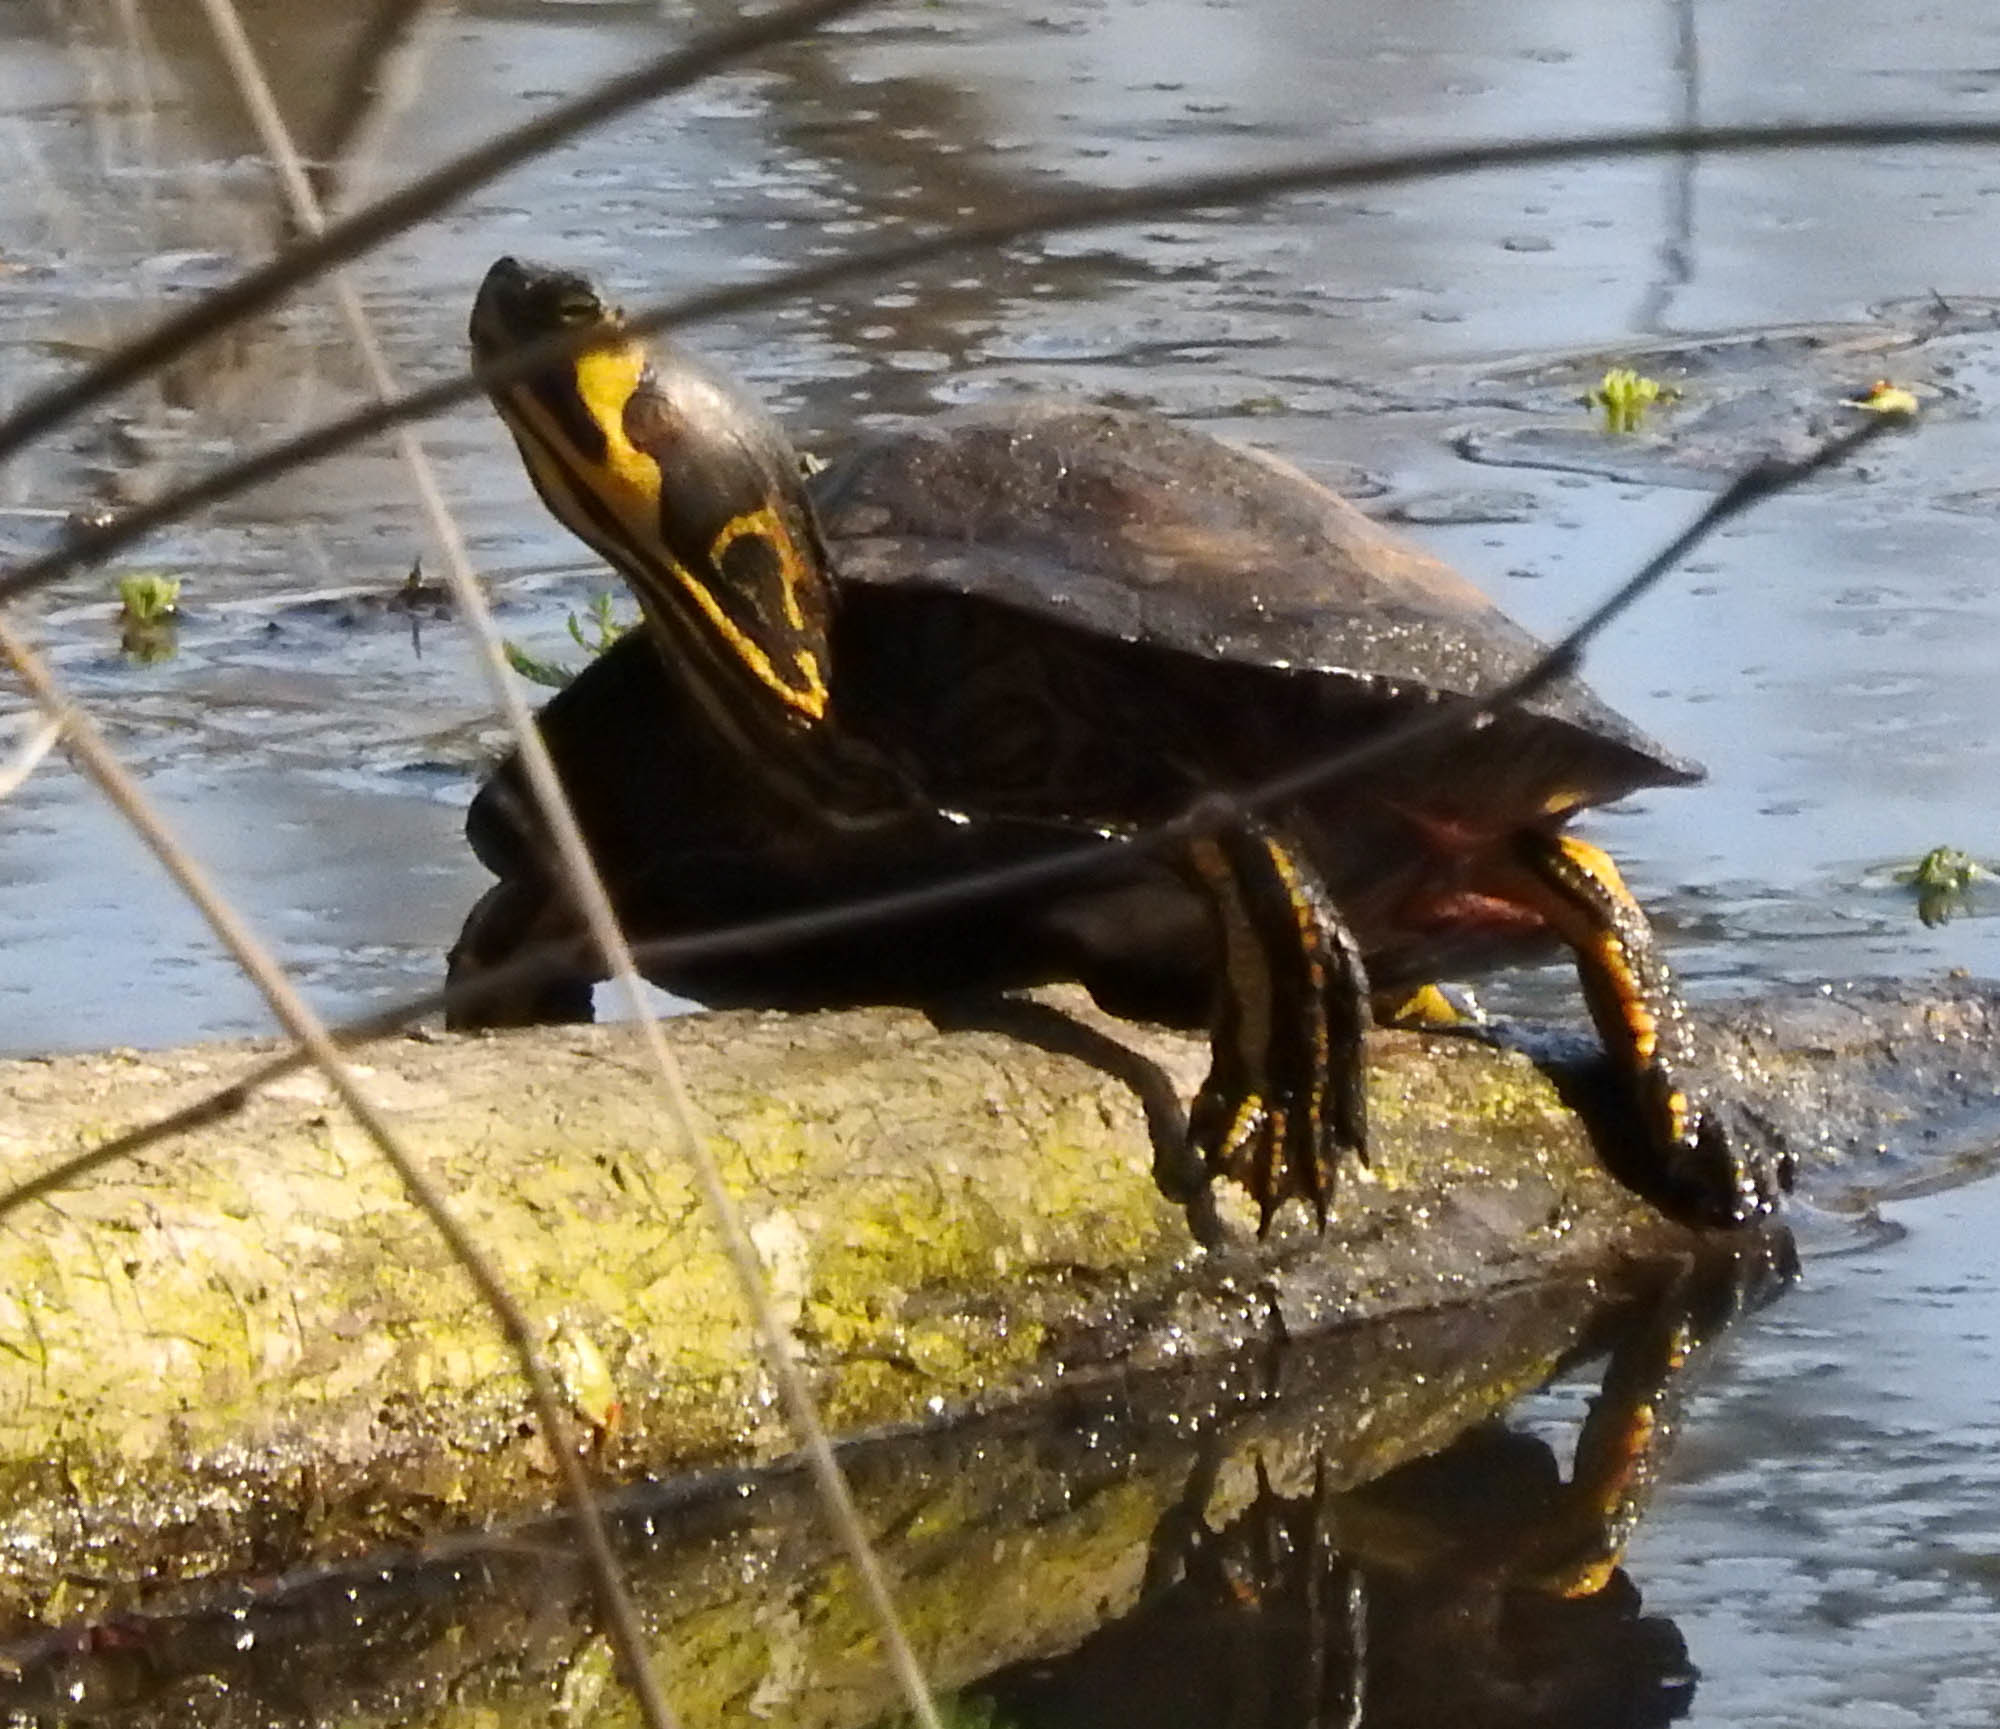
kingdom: Animalia
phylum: Chordata
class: Testudines
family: Emydidae
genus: Trachemys
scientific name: Trachemys scripta
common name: Slider
